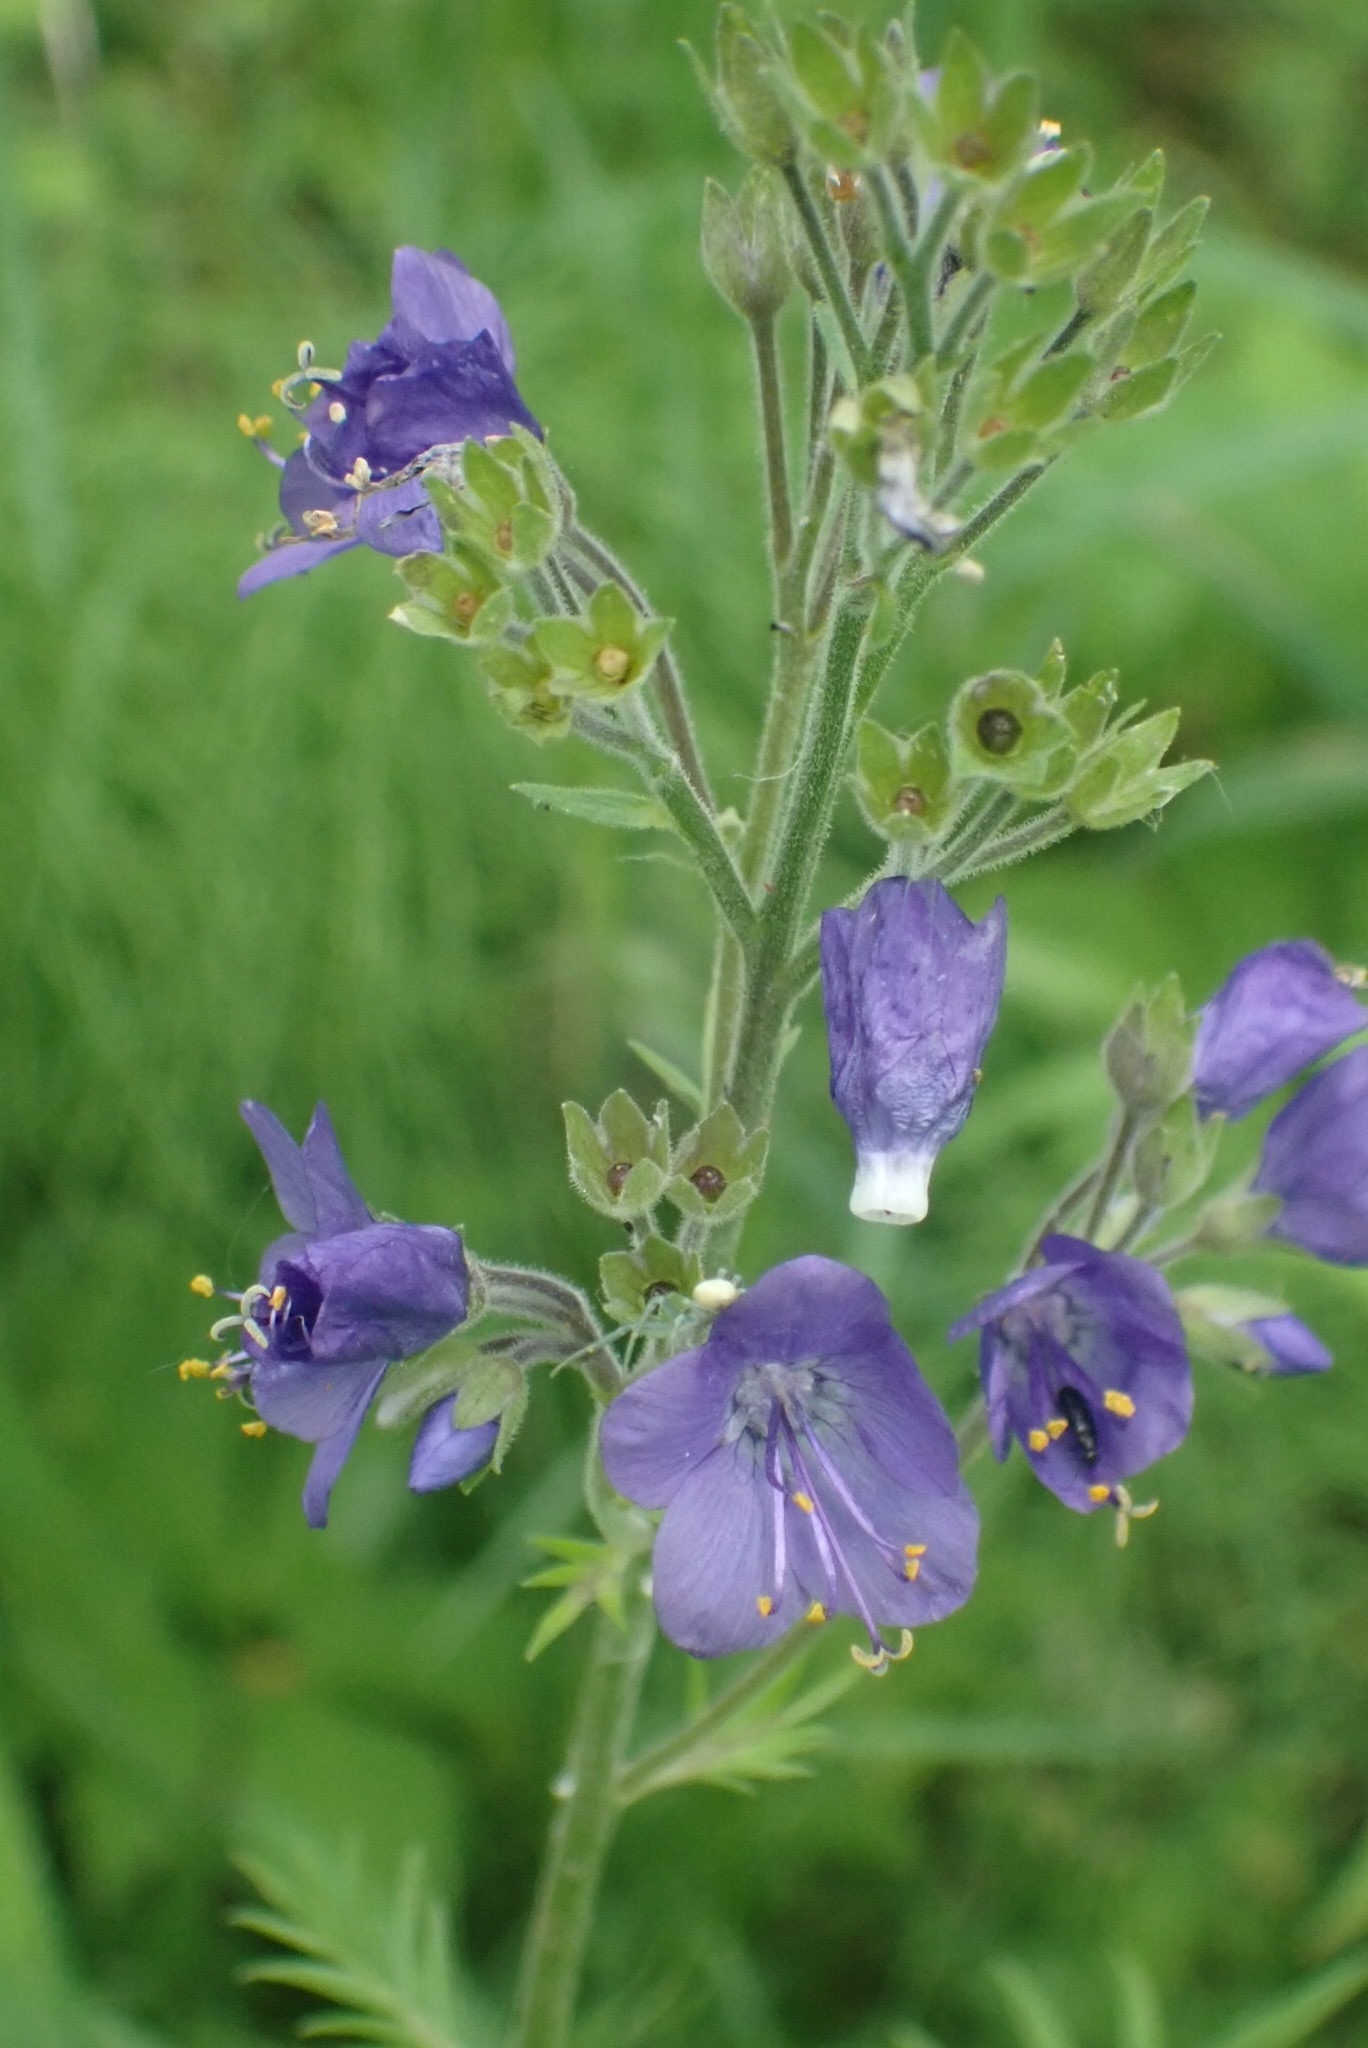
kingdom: Plantae
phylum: Tracheophyta
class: Magnoliopsida
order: Ericales
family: Polemoniaceae
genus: Polemonium
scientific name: Polemonium caeruleum
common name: Jacob's-ladder
